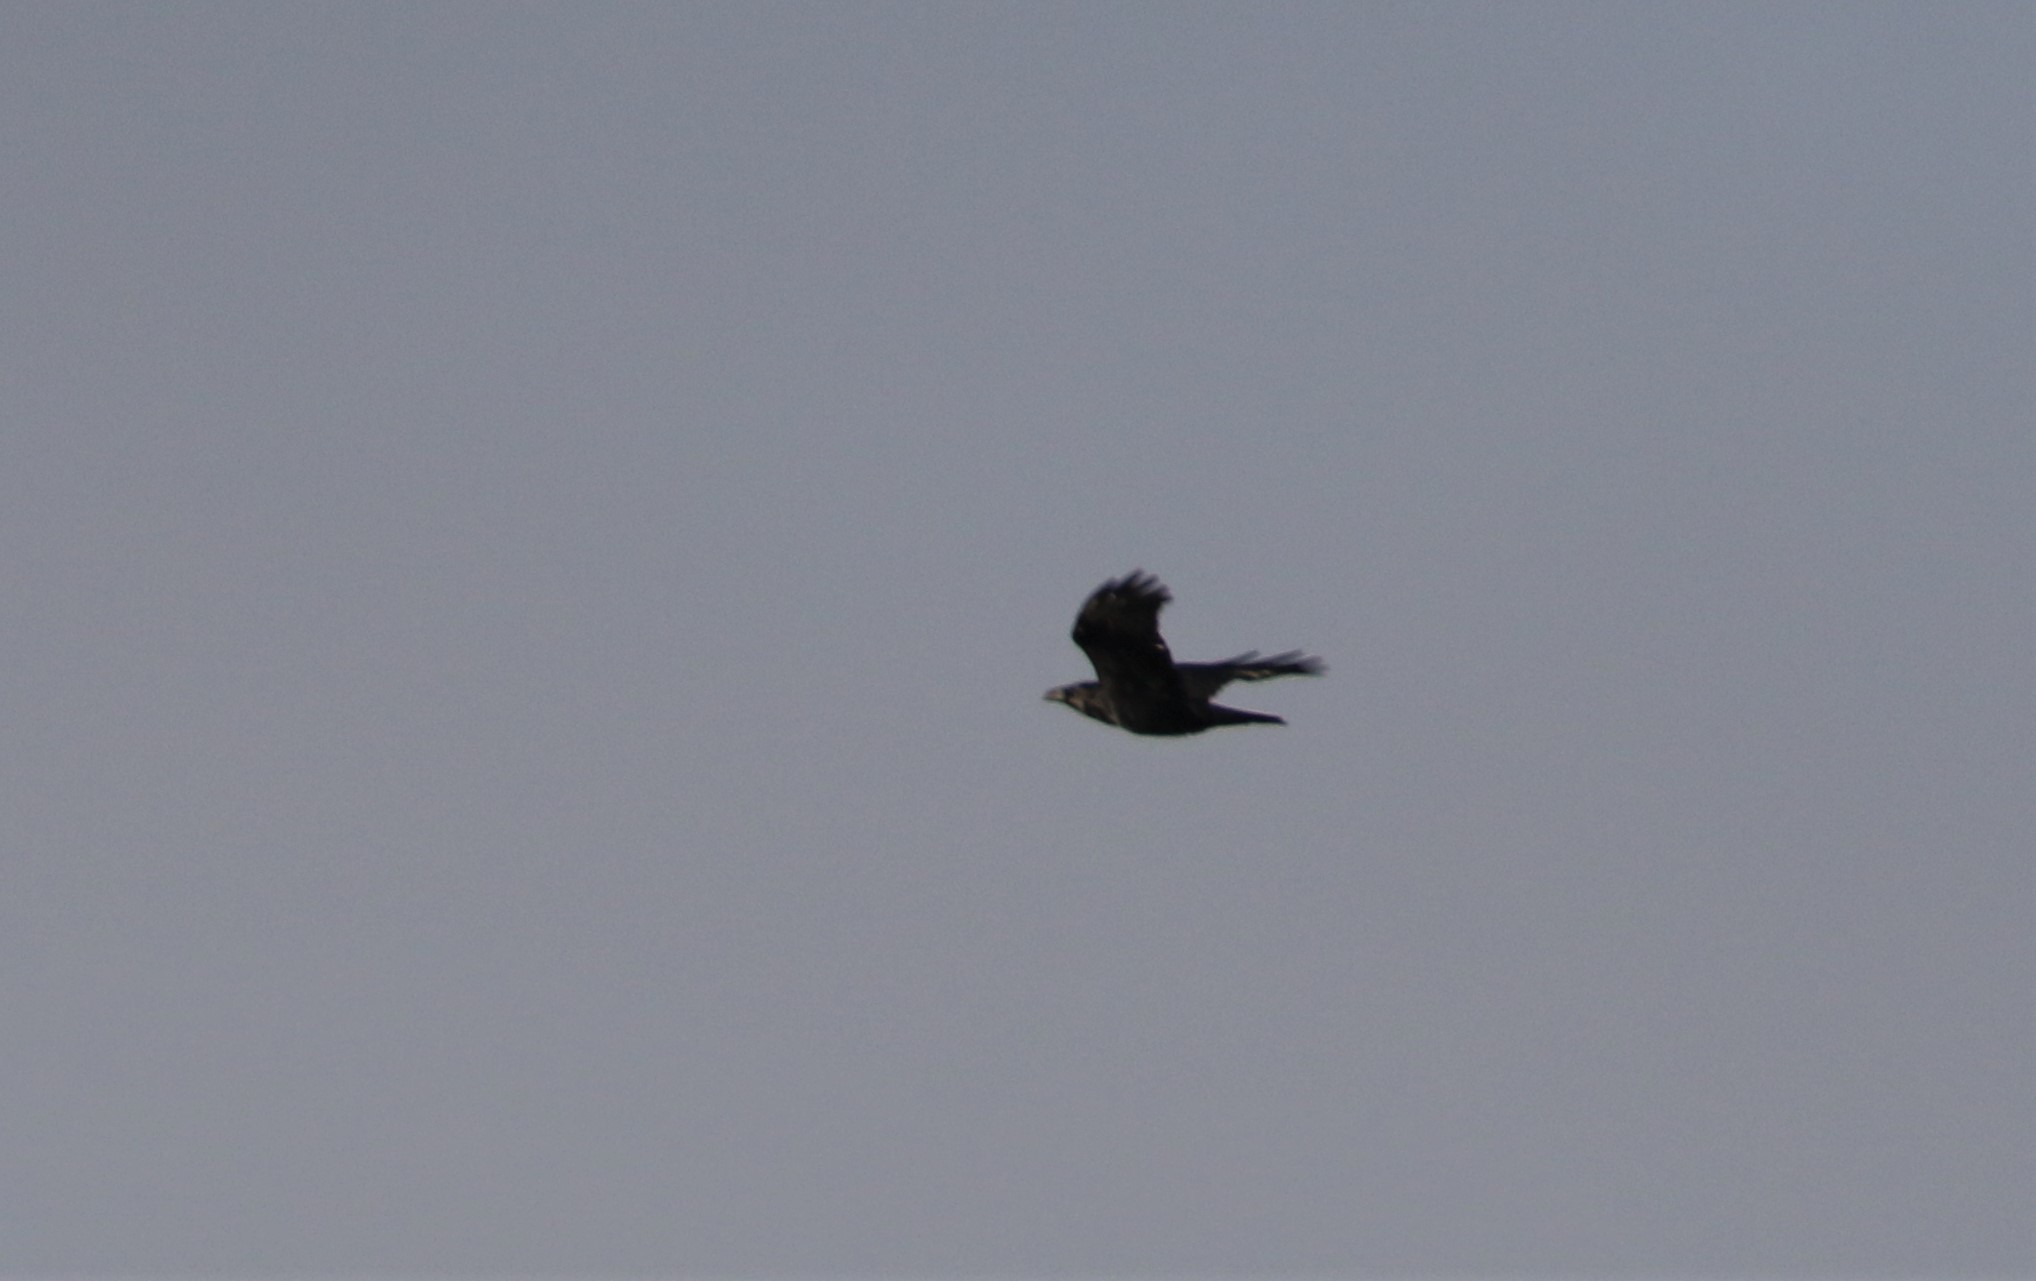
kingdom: Animalia
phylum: Chordata
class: Aves
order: Passeriformes
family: Corvidae
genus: Corvus
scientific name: Corvus corax
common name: Common raven
